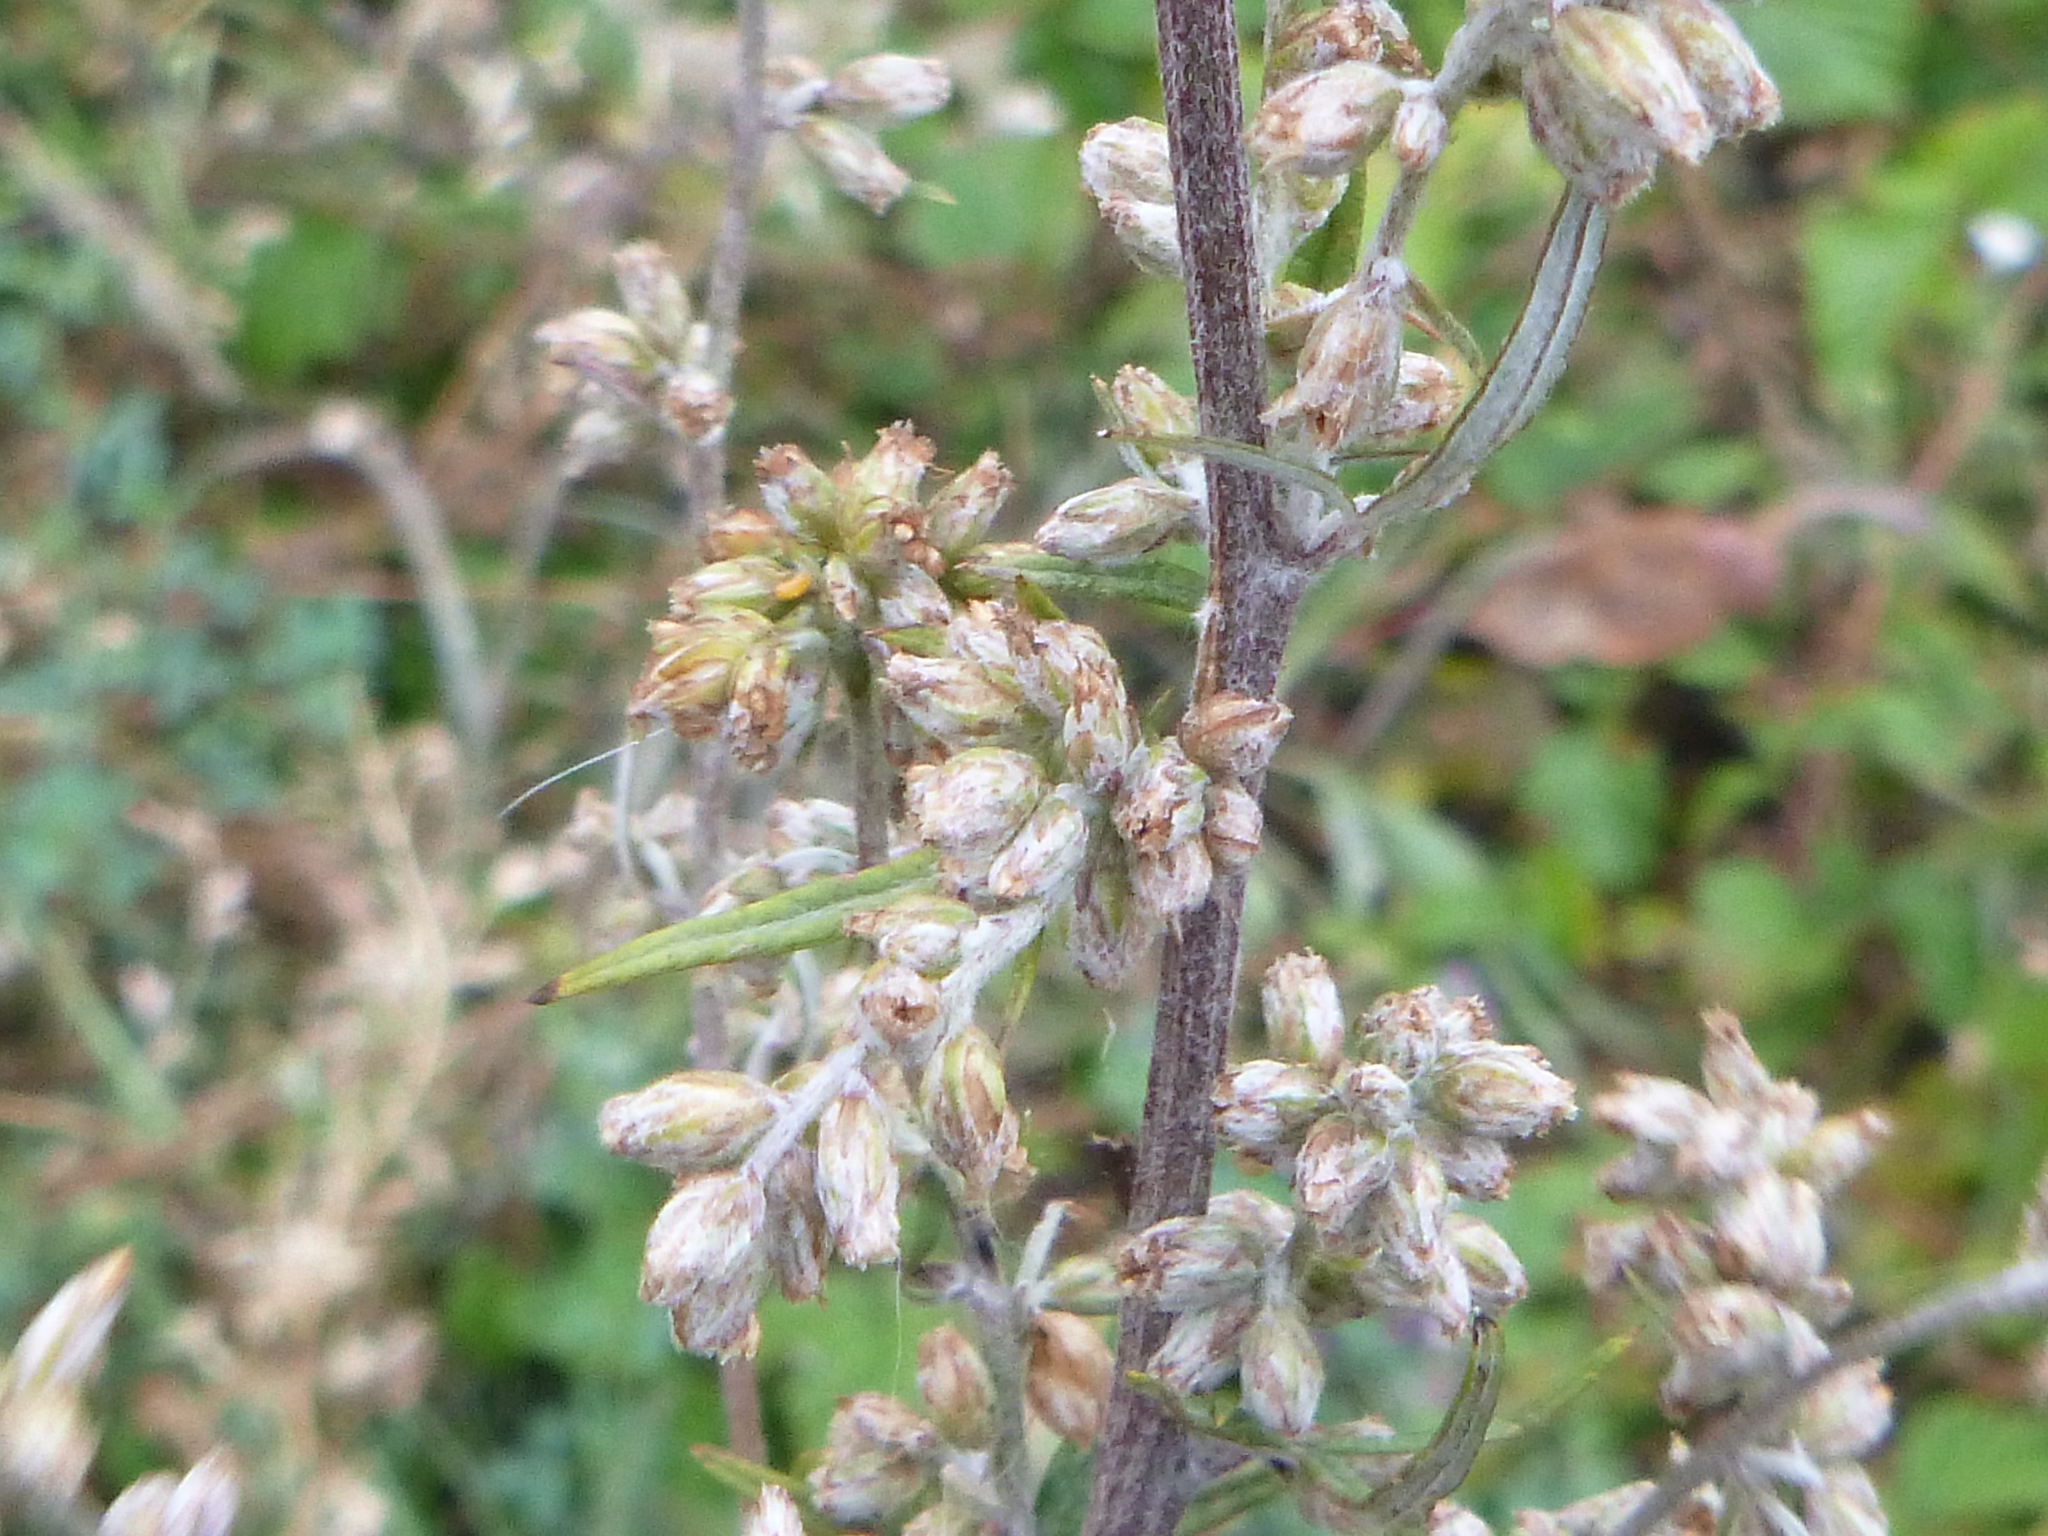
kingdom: Plantae
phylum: Tracheophyta
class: Magnoliopsida
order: Asterales
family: Asteraceae
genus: Artemisia
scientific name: Artemisia vulgaris
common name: Mugwort
